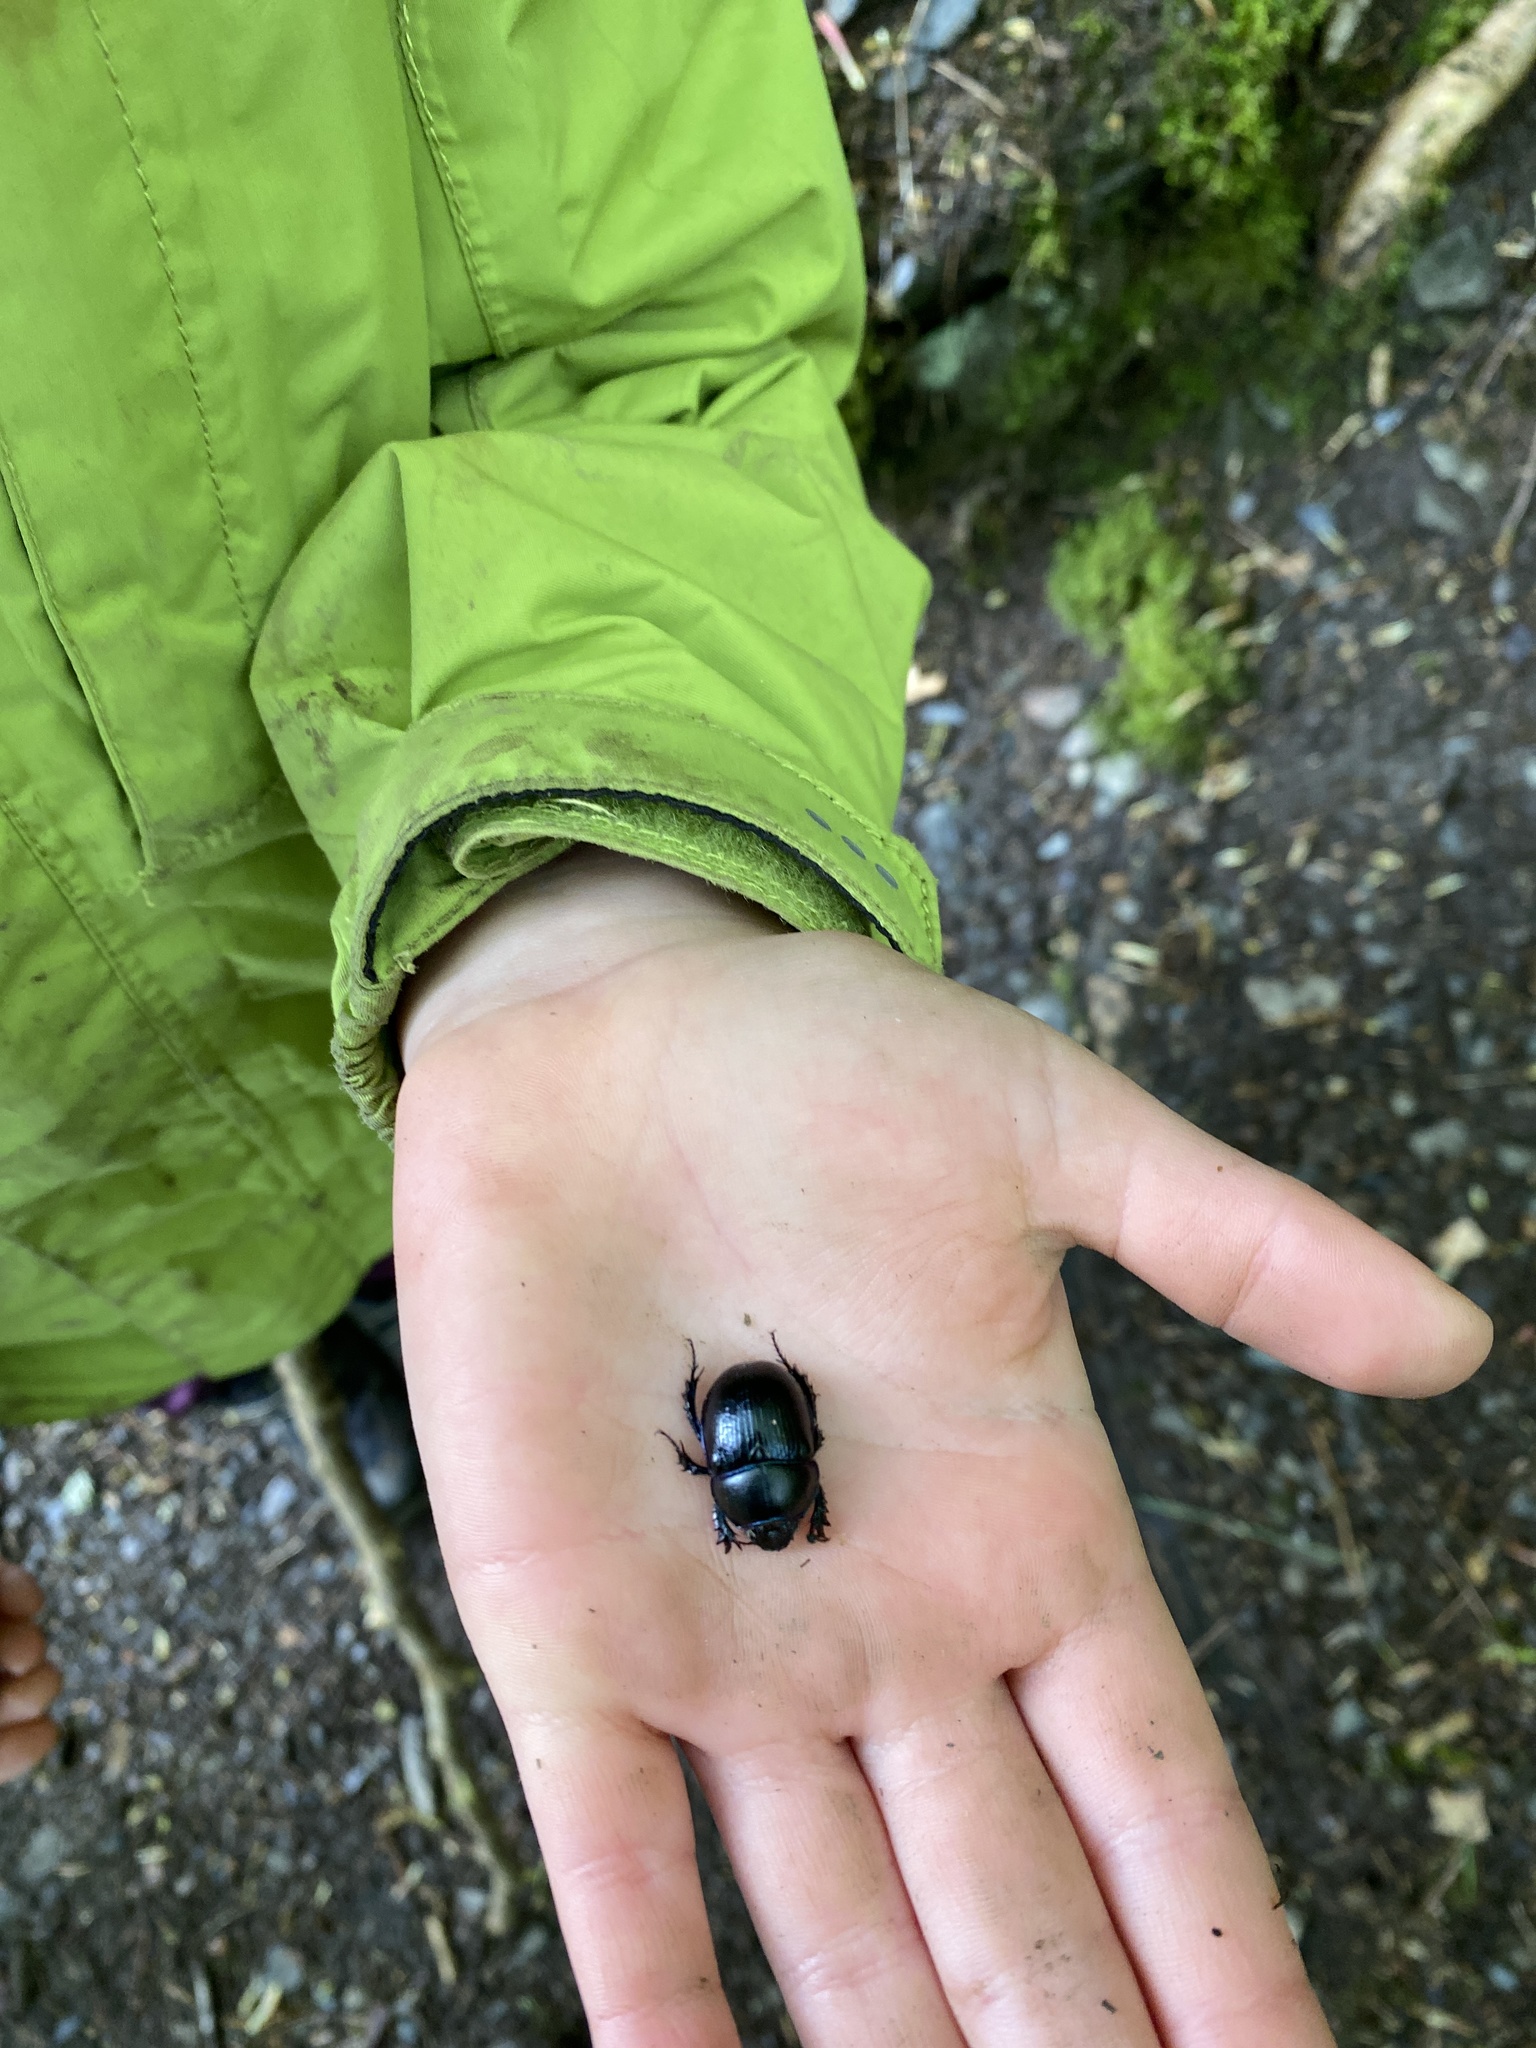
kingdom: Animalia
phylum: Arthropoda
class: Insecta
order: Coleoptera
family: Geotrupidae
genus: Anoplotrupes
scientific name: Anoplotrupes stercorosus
